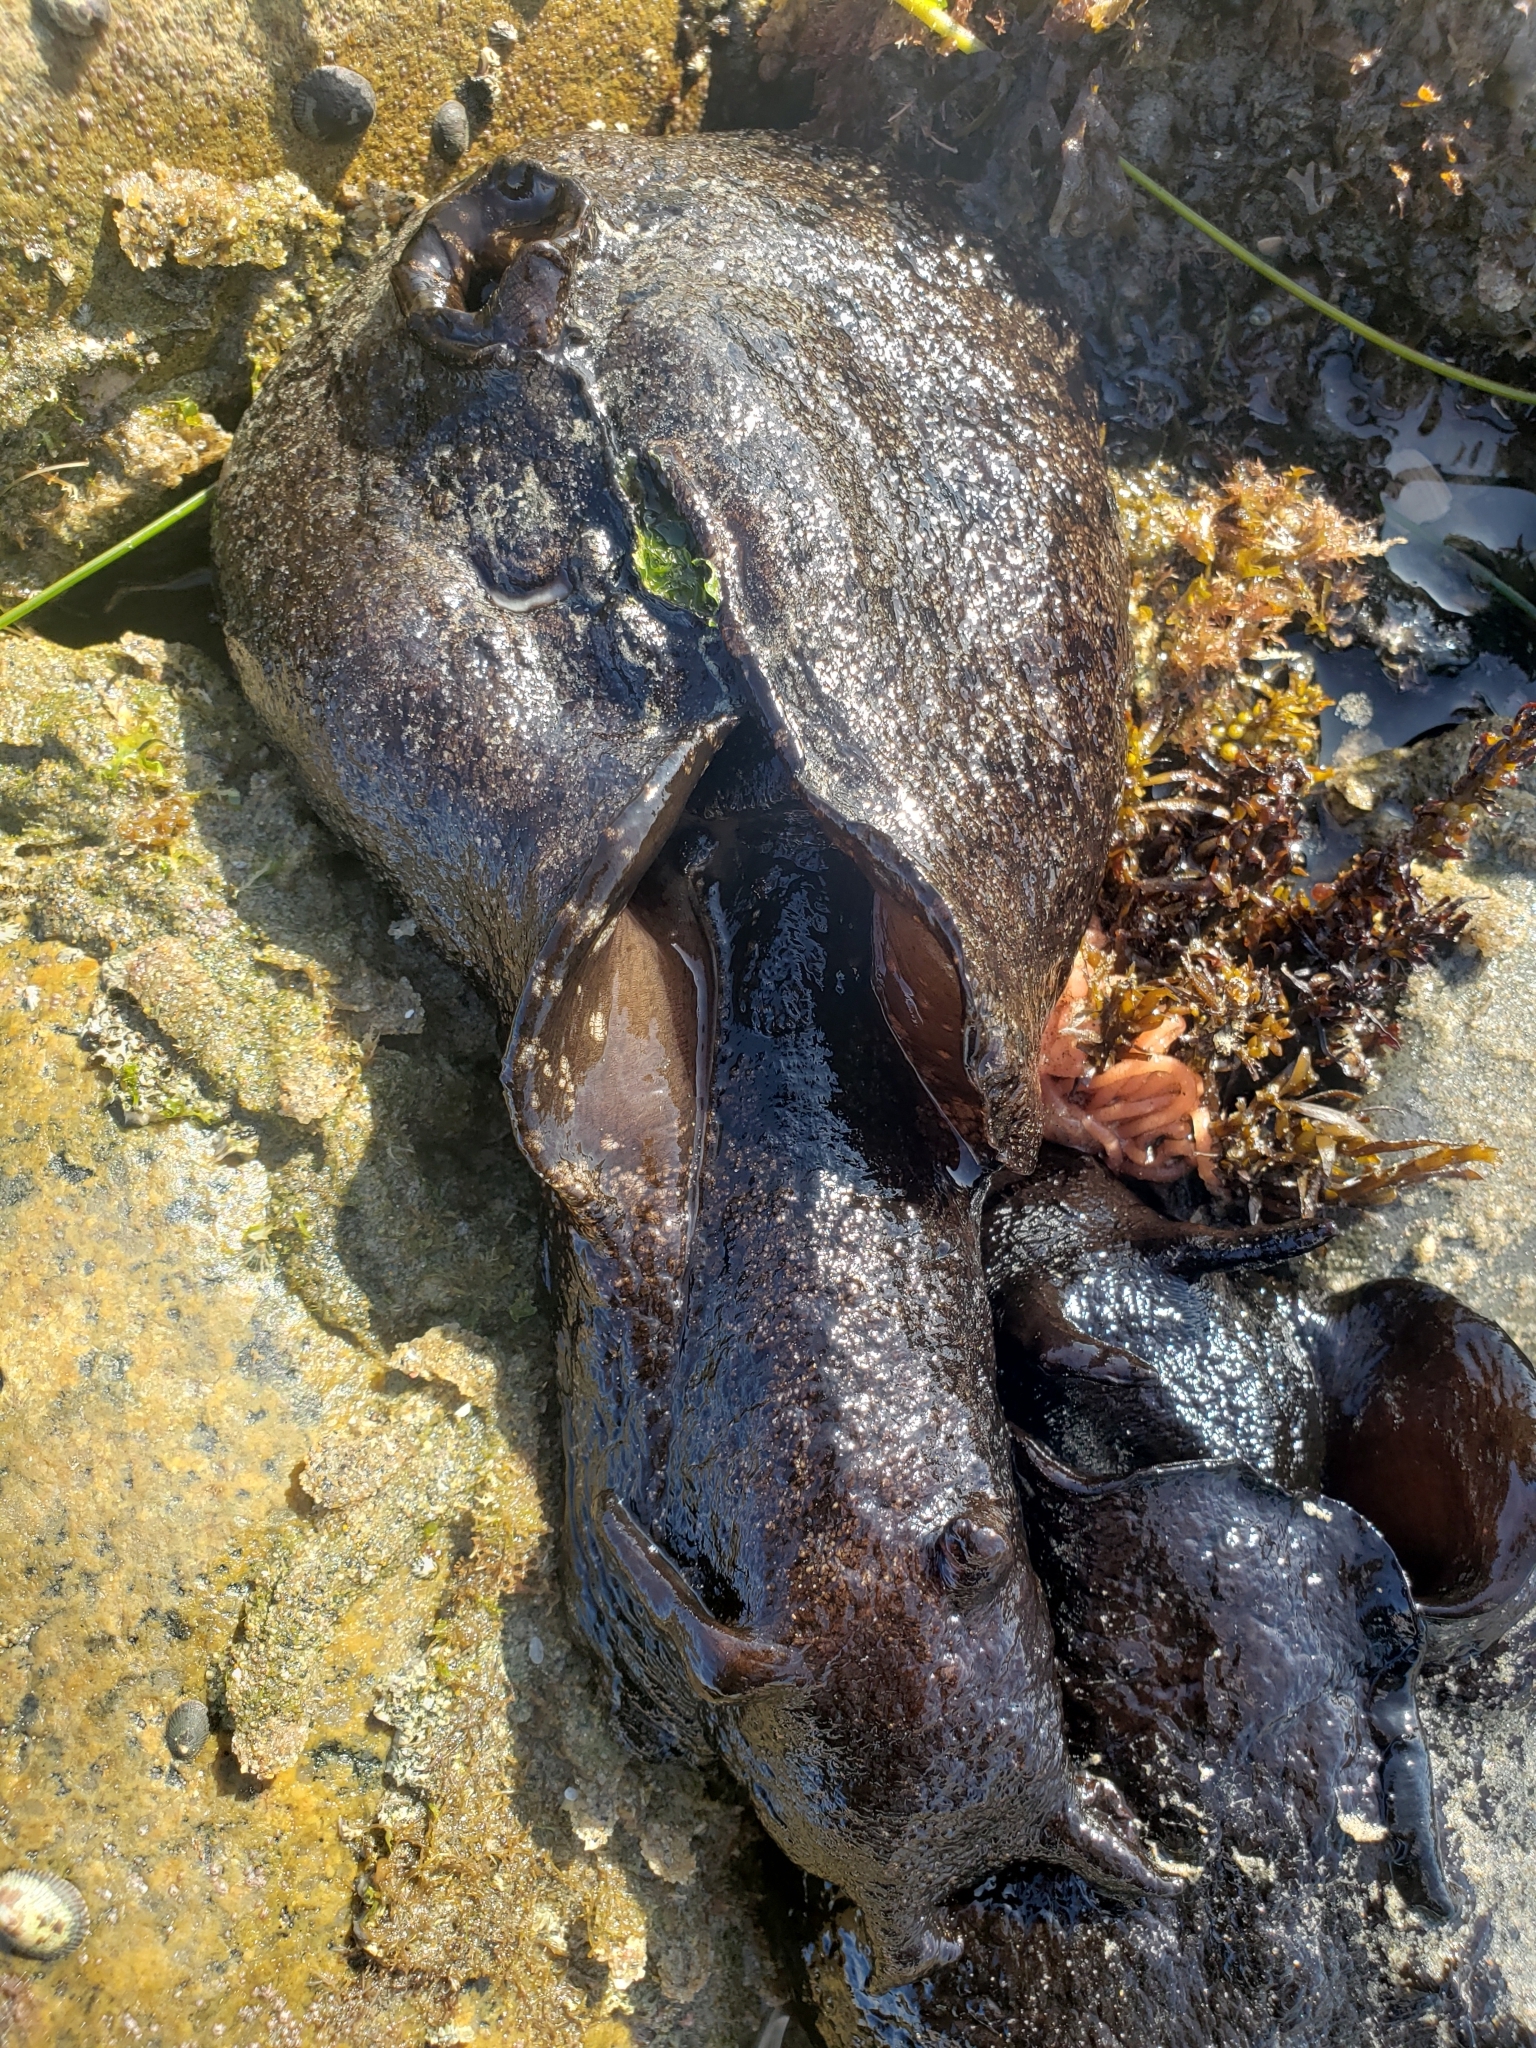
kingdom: Animalia
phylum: Mollusca
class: Gastropoda
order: Aplysiida
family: Aplysiidae
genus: Aplysia
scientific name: Aplysia vaccaria
